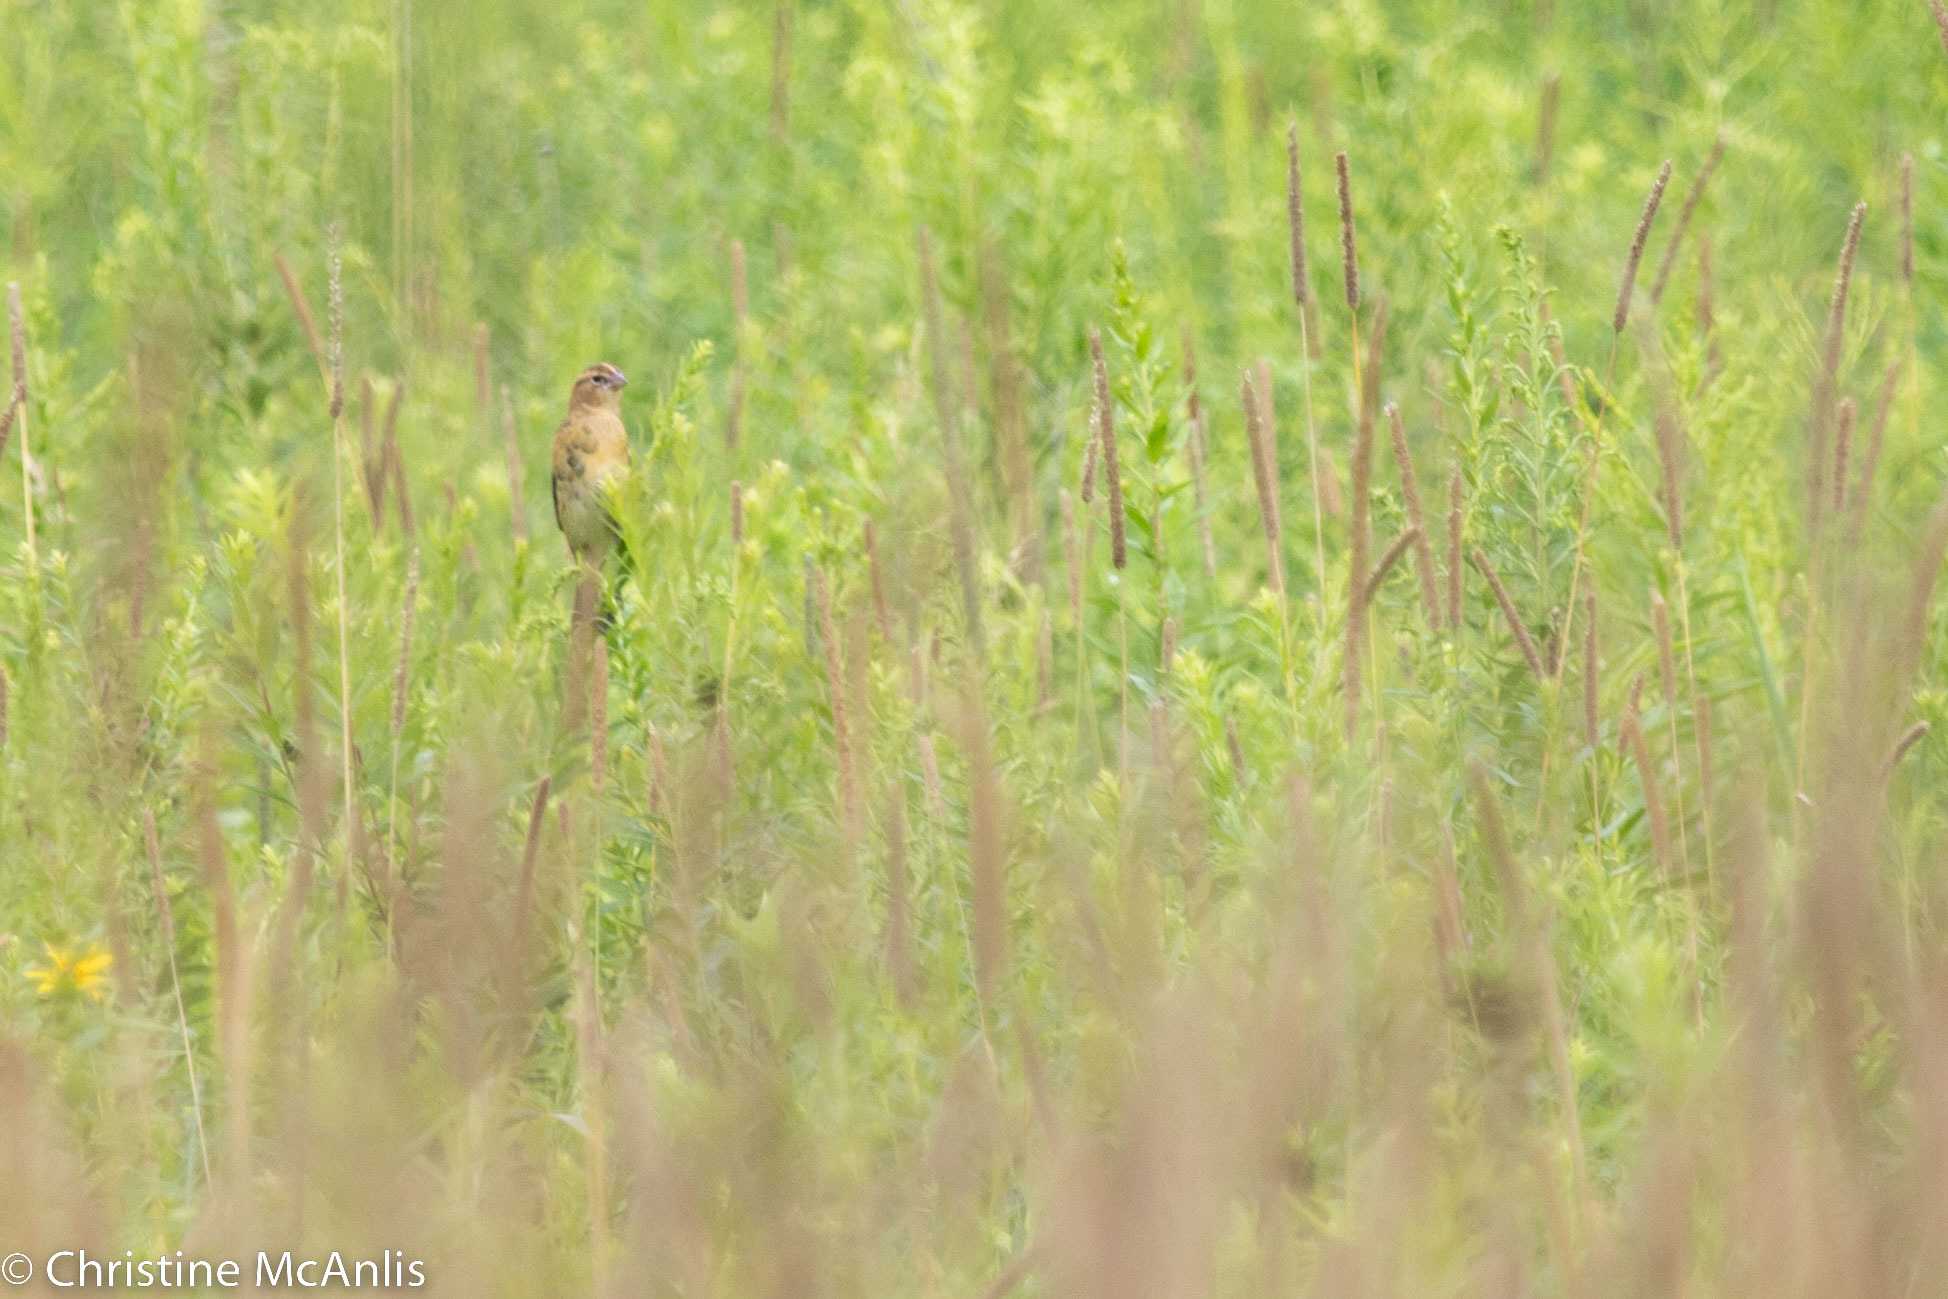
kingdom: Animalia
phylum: Chordata
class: Aves
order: Passeriformes
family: Icteridae
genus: Dolichonyx
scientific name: Dolichonyx oryzivorus
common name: Bobolink
